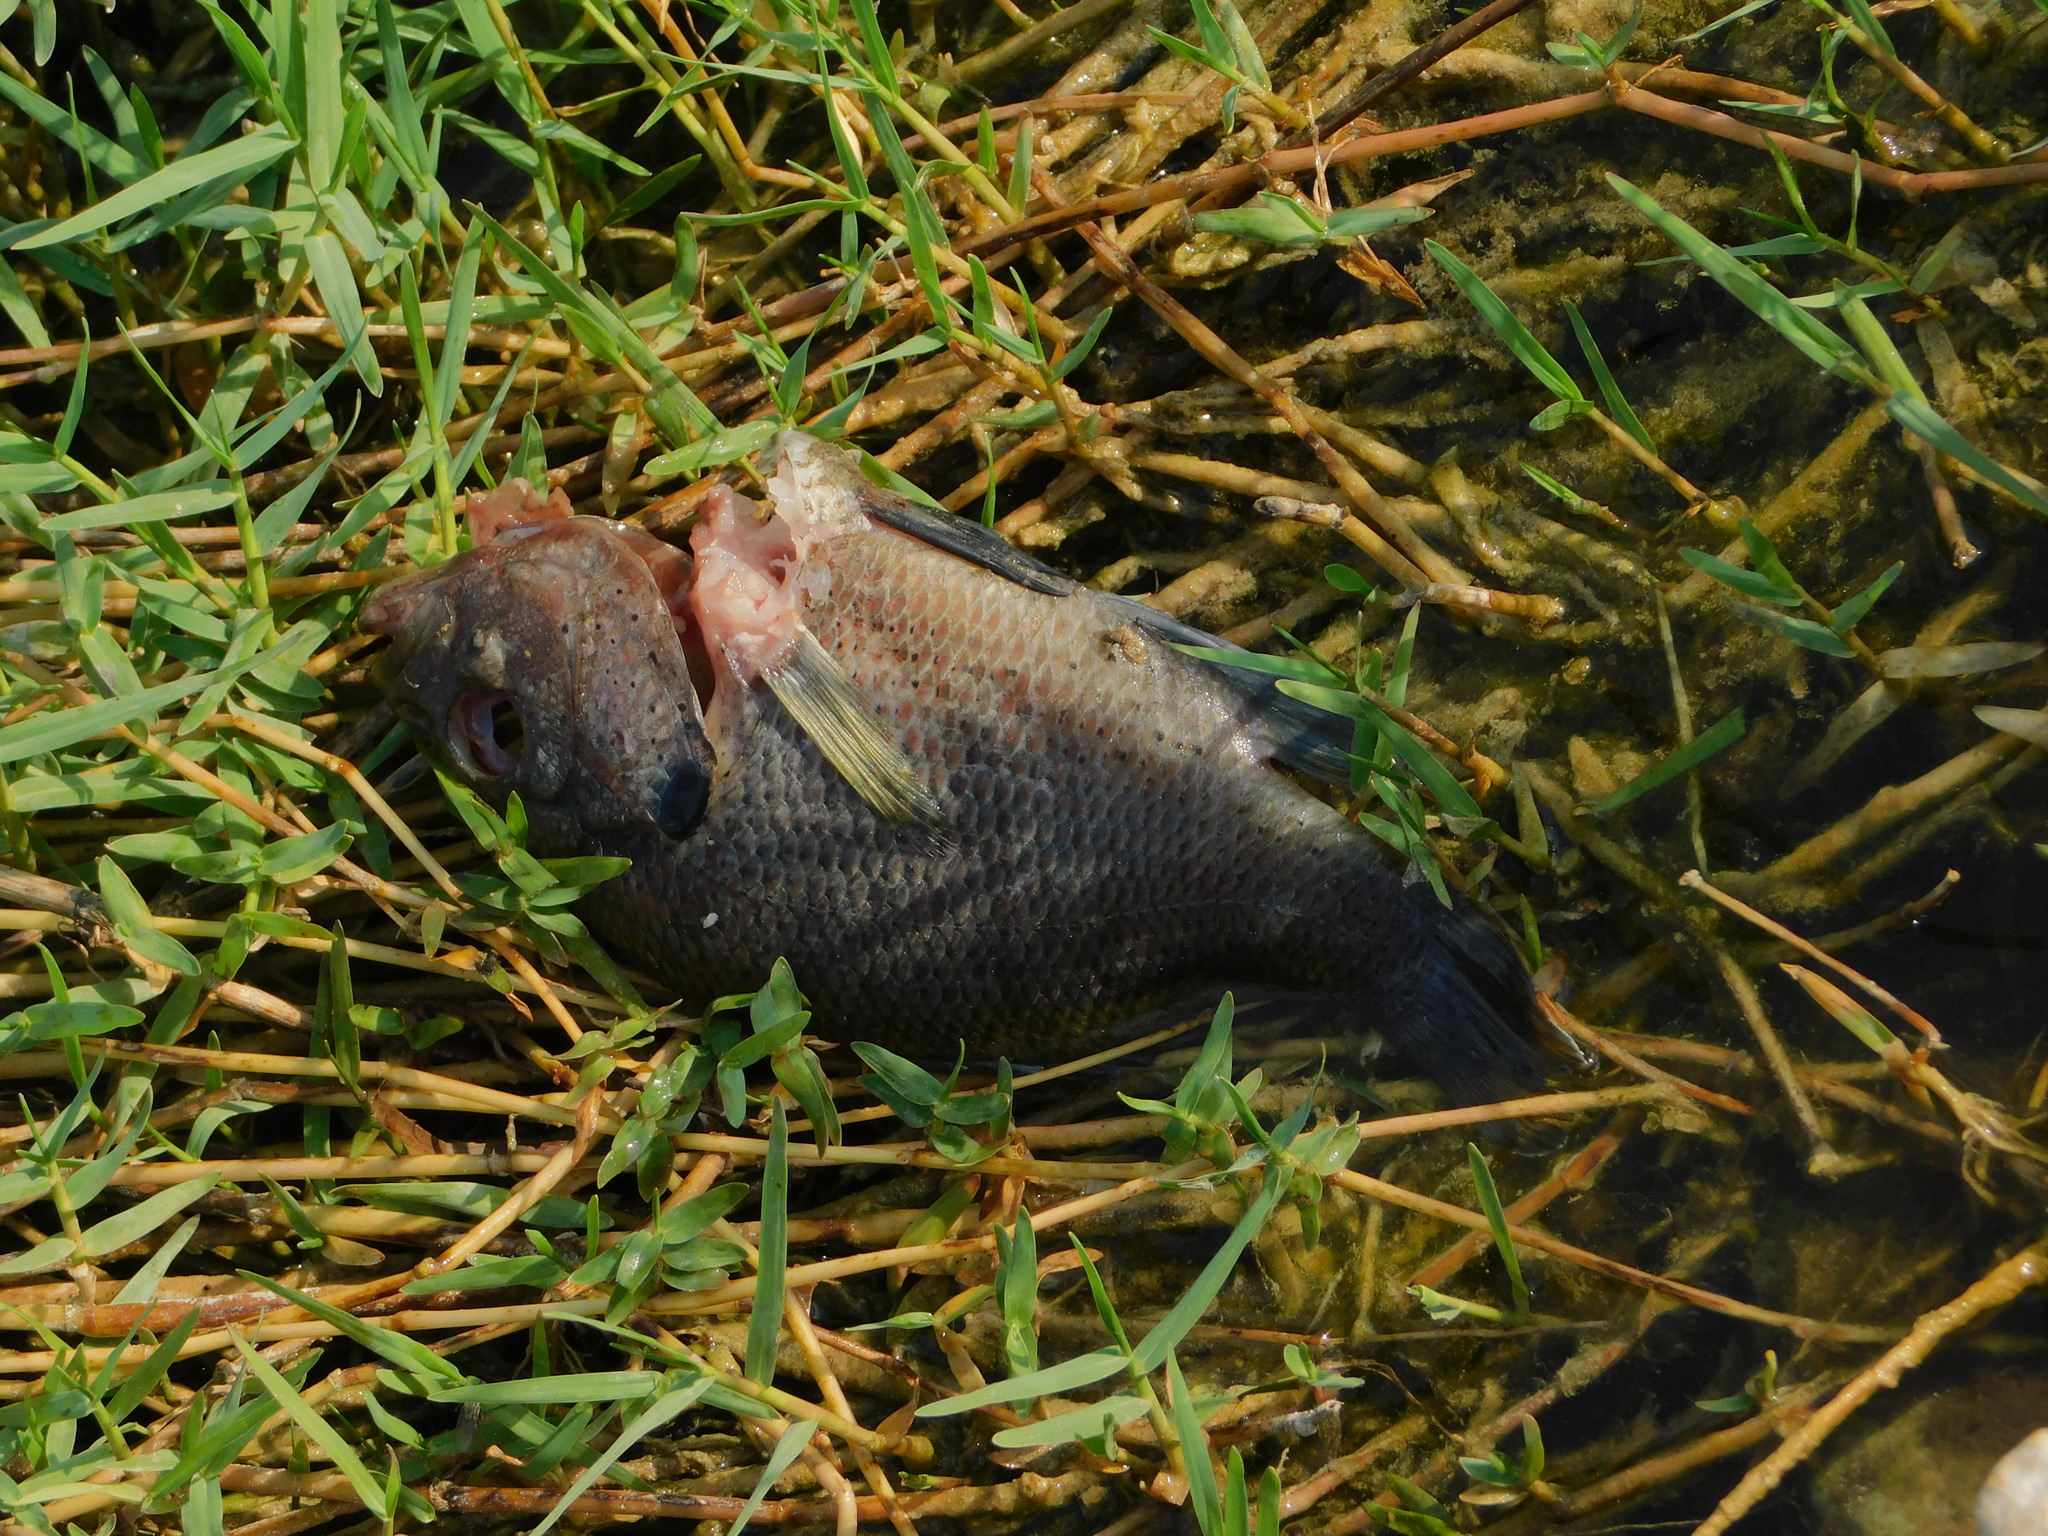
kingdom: Animalia
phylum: Chordata
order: Perciformes
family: Centrarchidae
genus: Lepomis
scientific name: Lepomis punctatus
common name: Spotted sunfish
